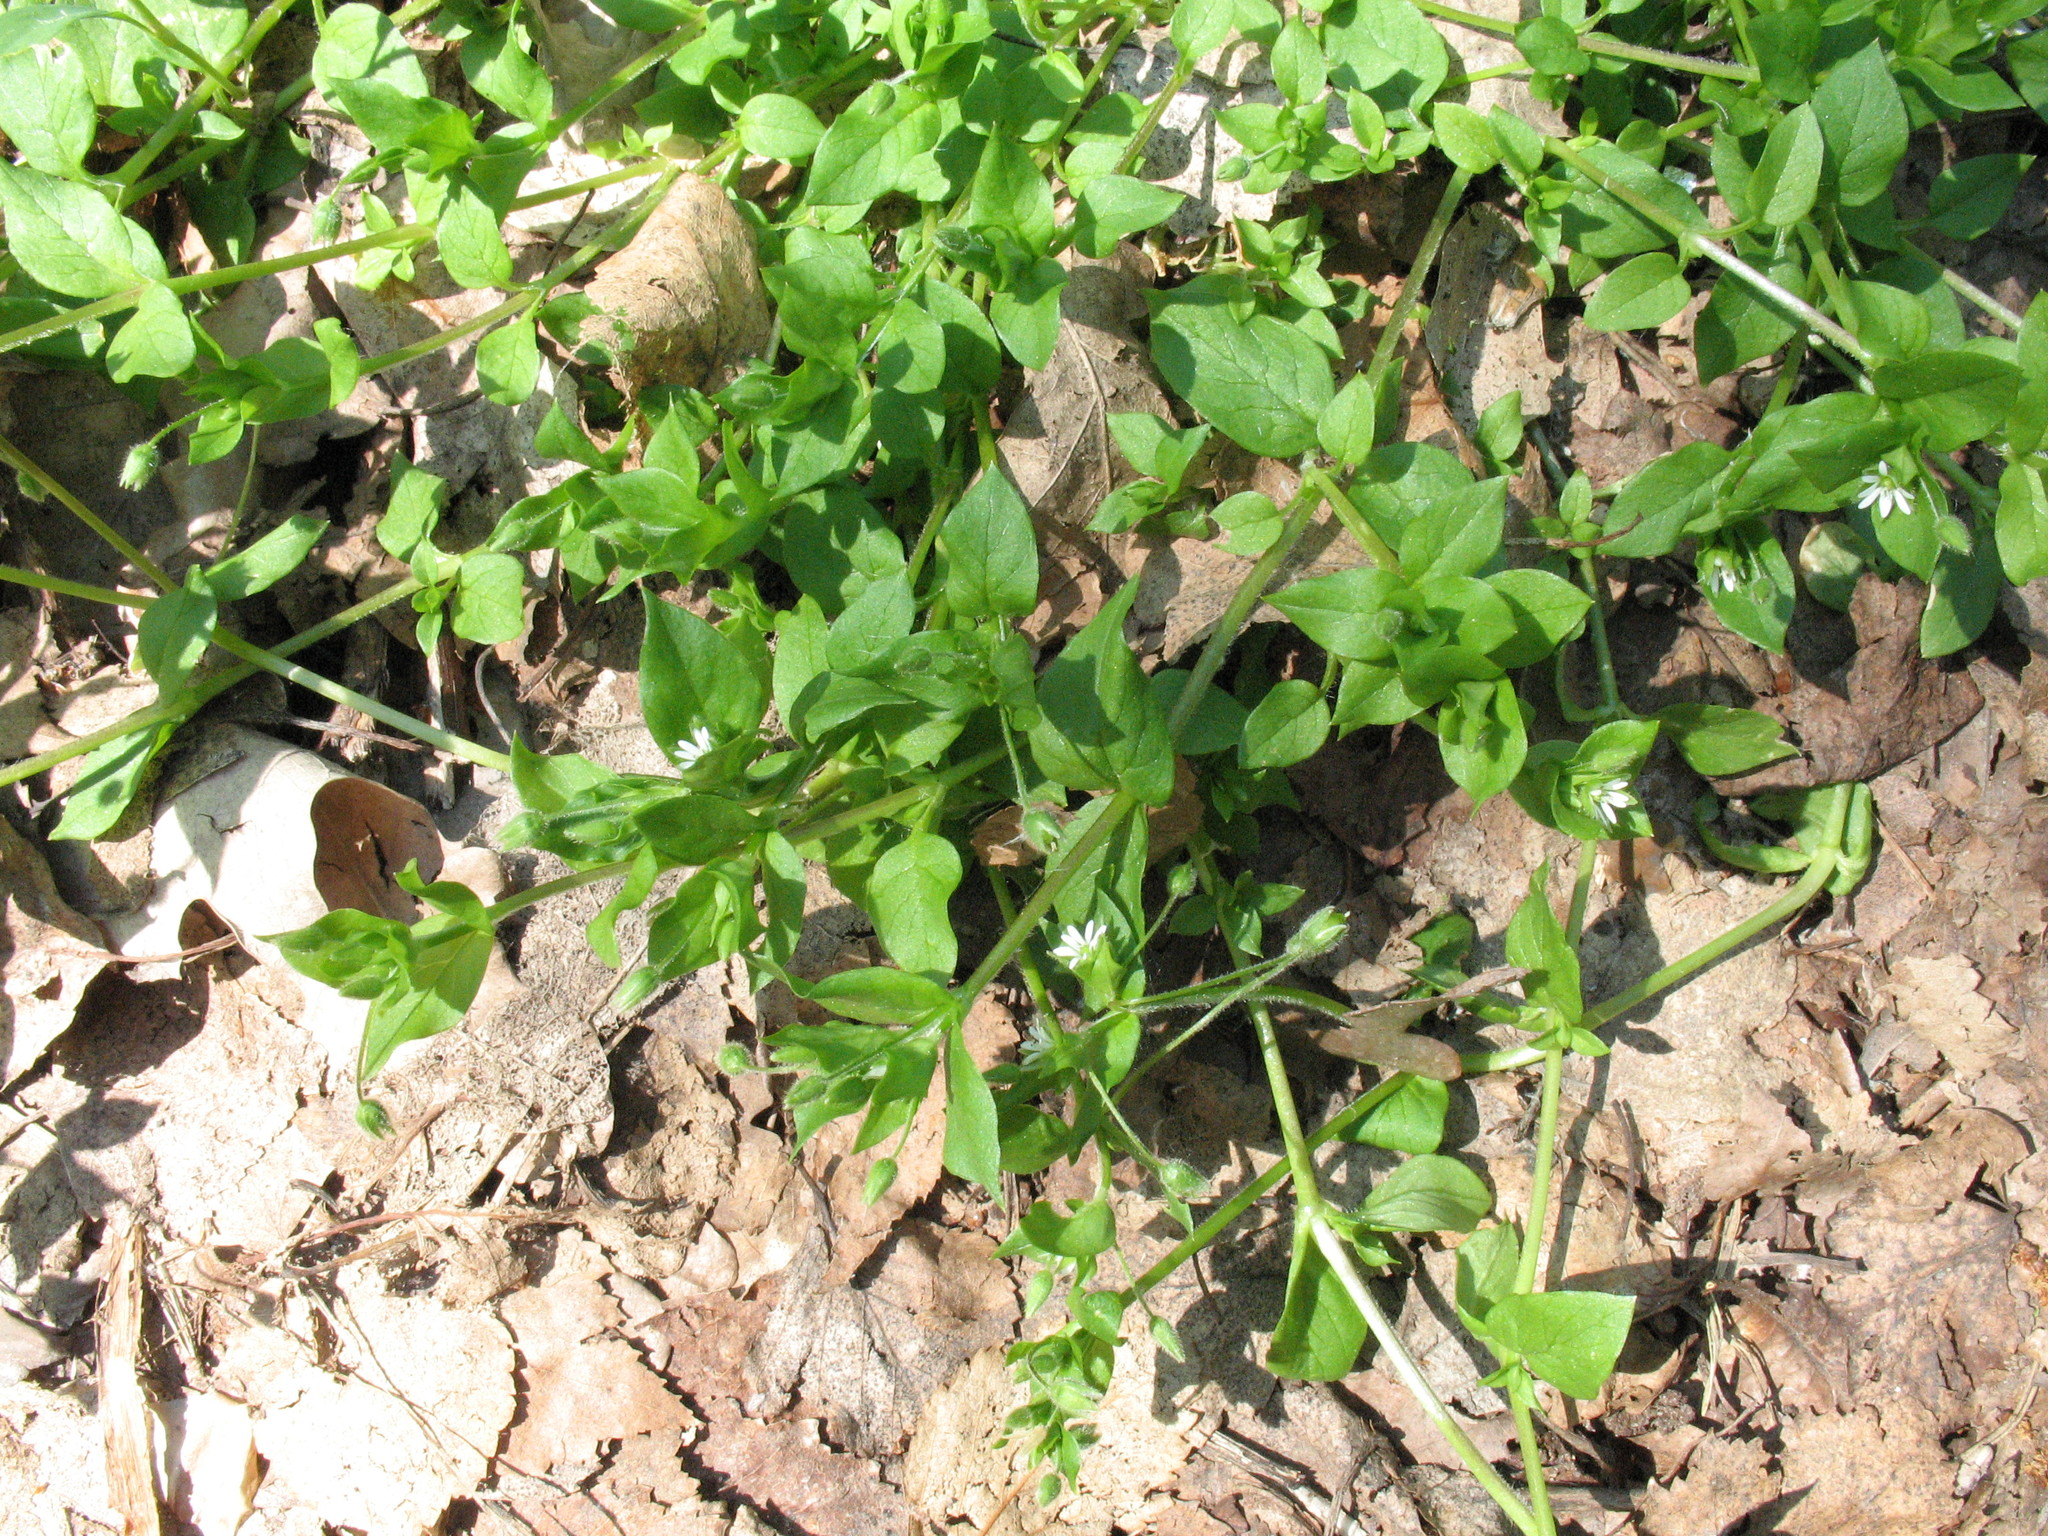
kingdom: Plantae
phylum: Tracheophyta
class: Magnoliopsida
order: Caryophyllales
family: Caryophyllaceae
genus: Stellaria
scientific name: Stellaria media
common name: Common chickweed
